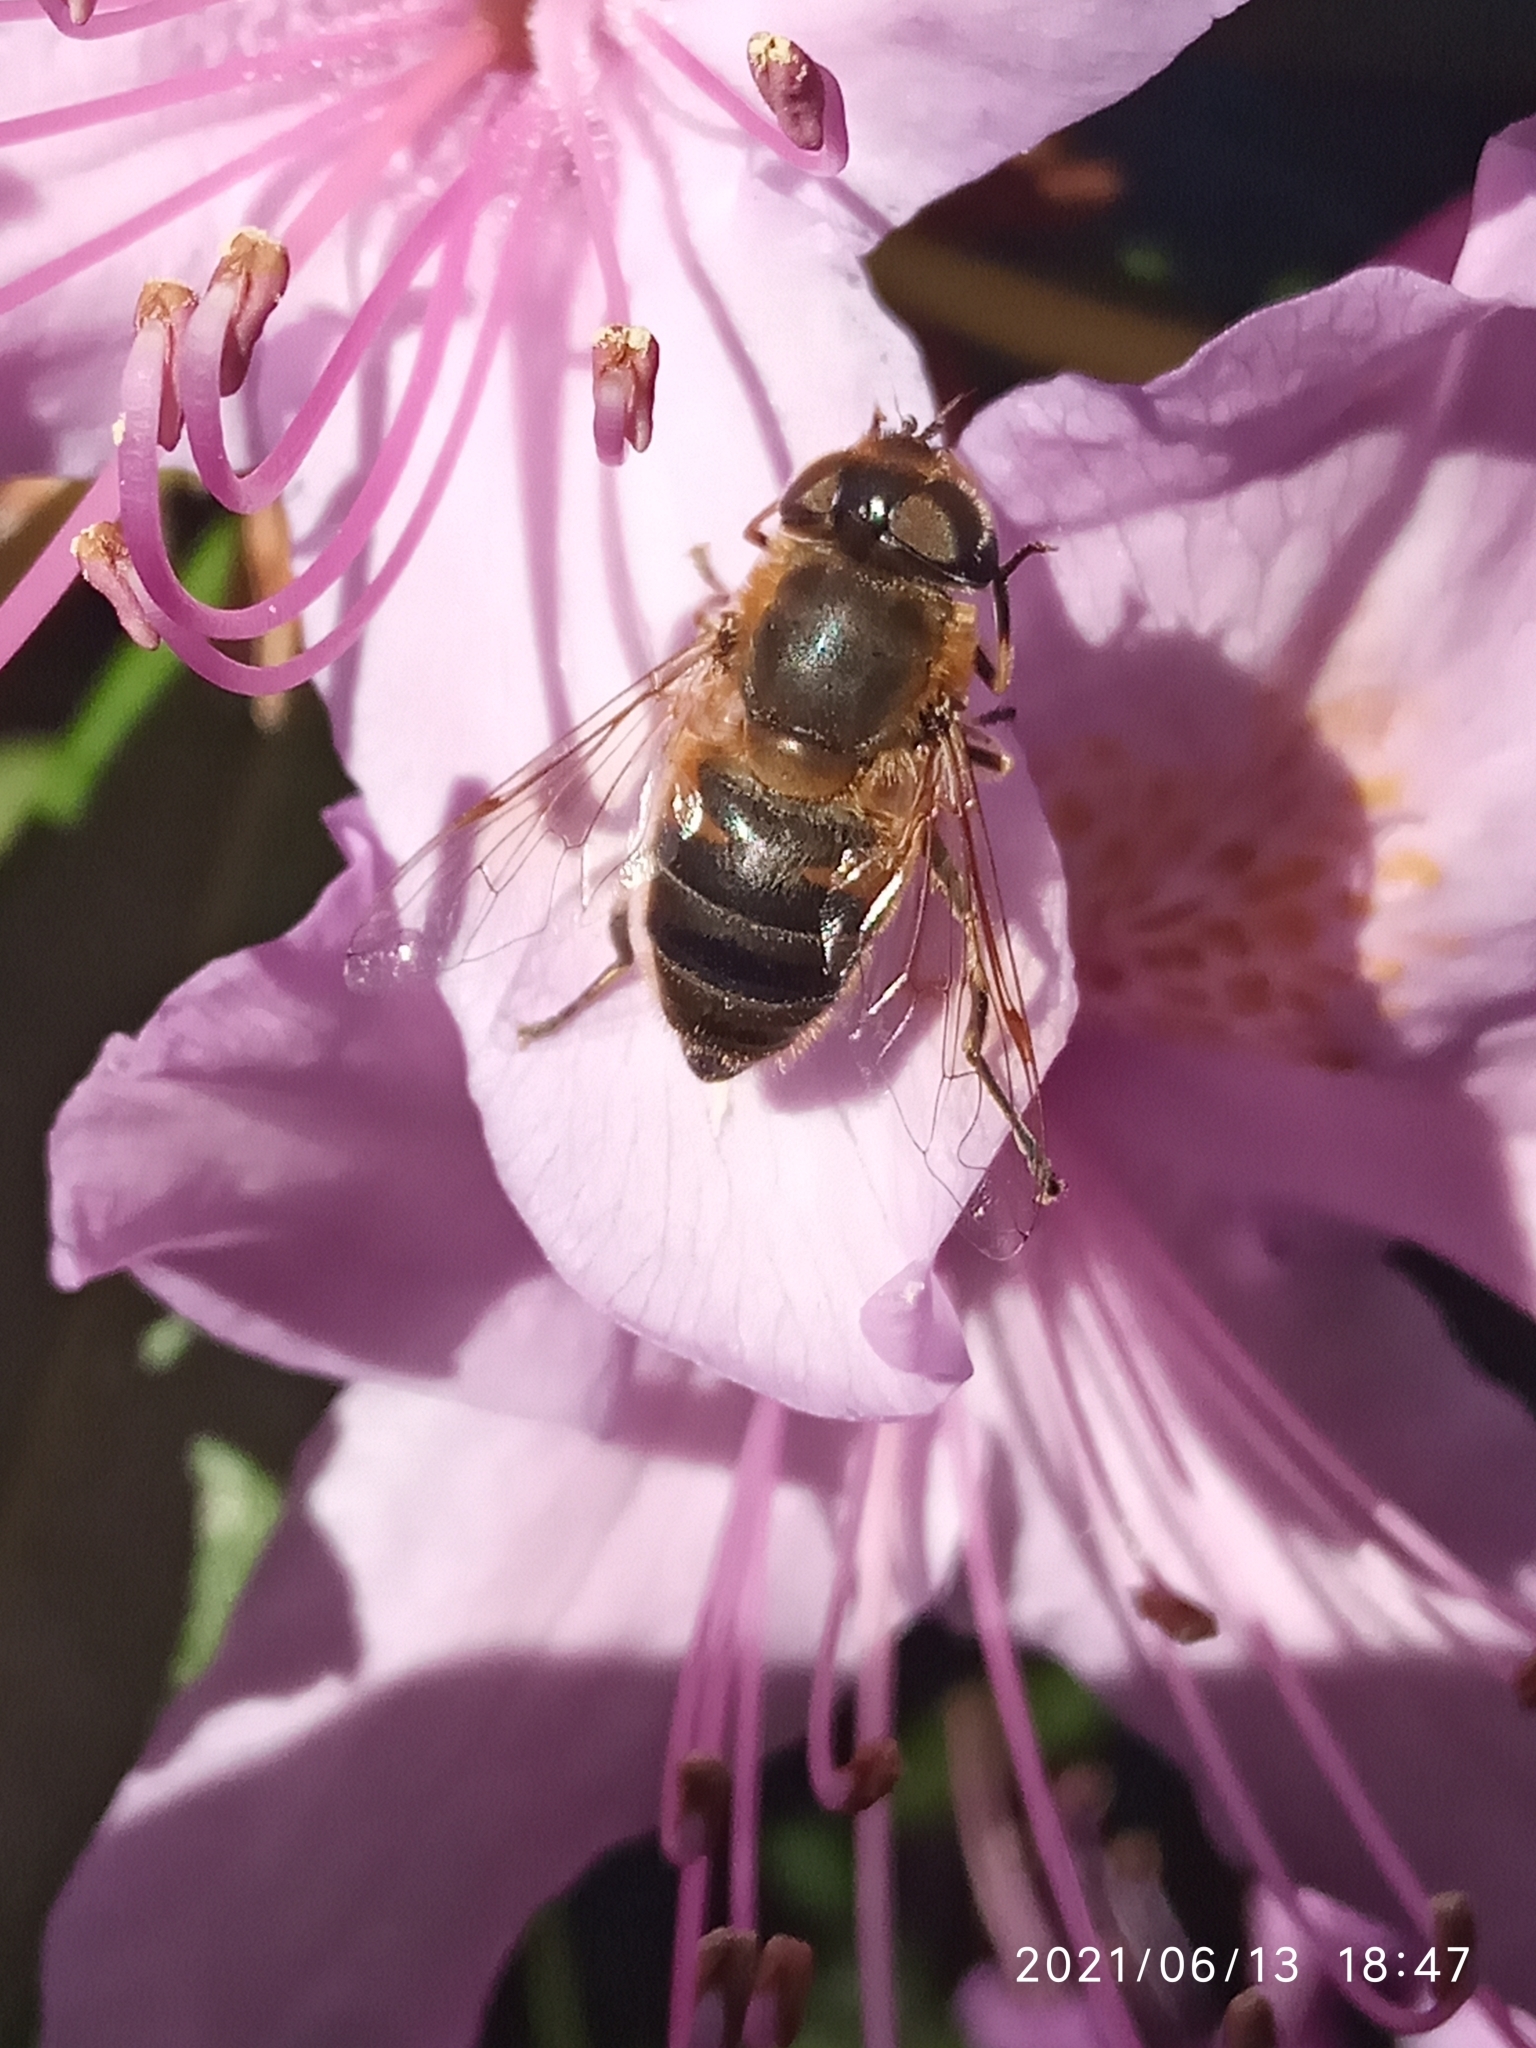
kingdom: Animalia
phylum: Arthropoda
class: Insecta
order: Diptera
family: Syrphidae
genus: Eristalis
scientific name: Eristalis pertinax
